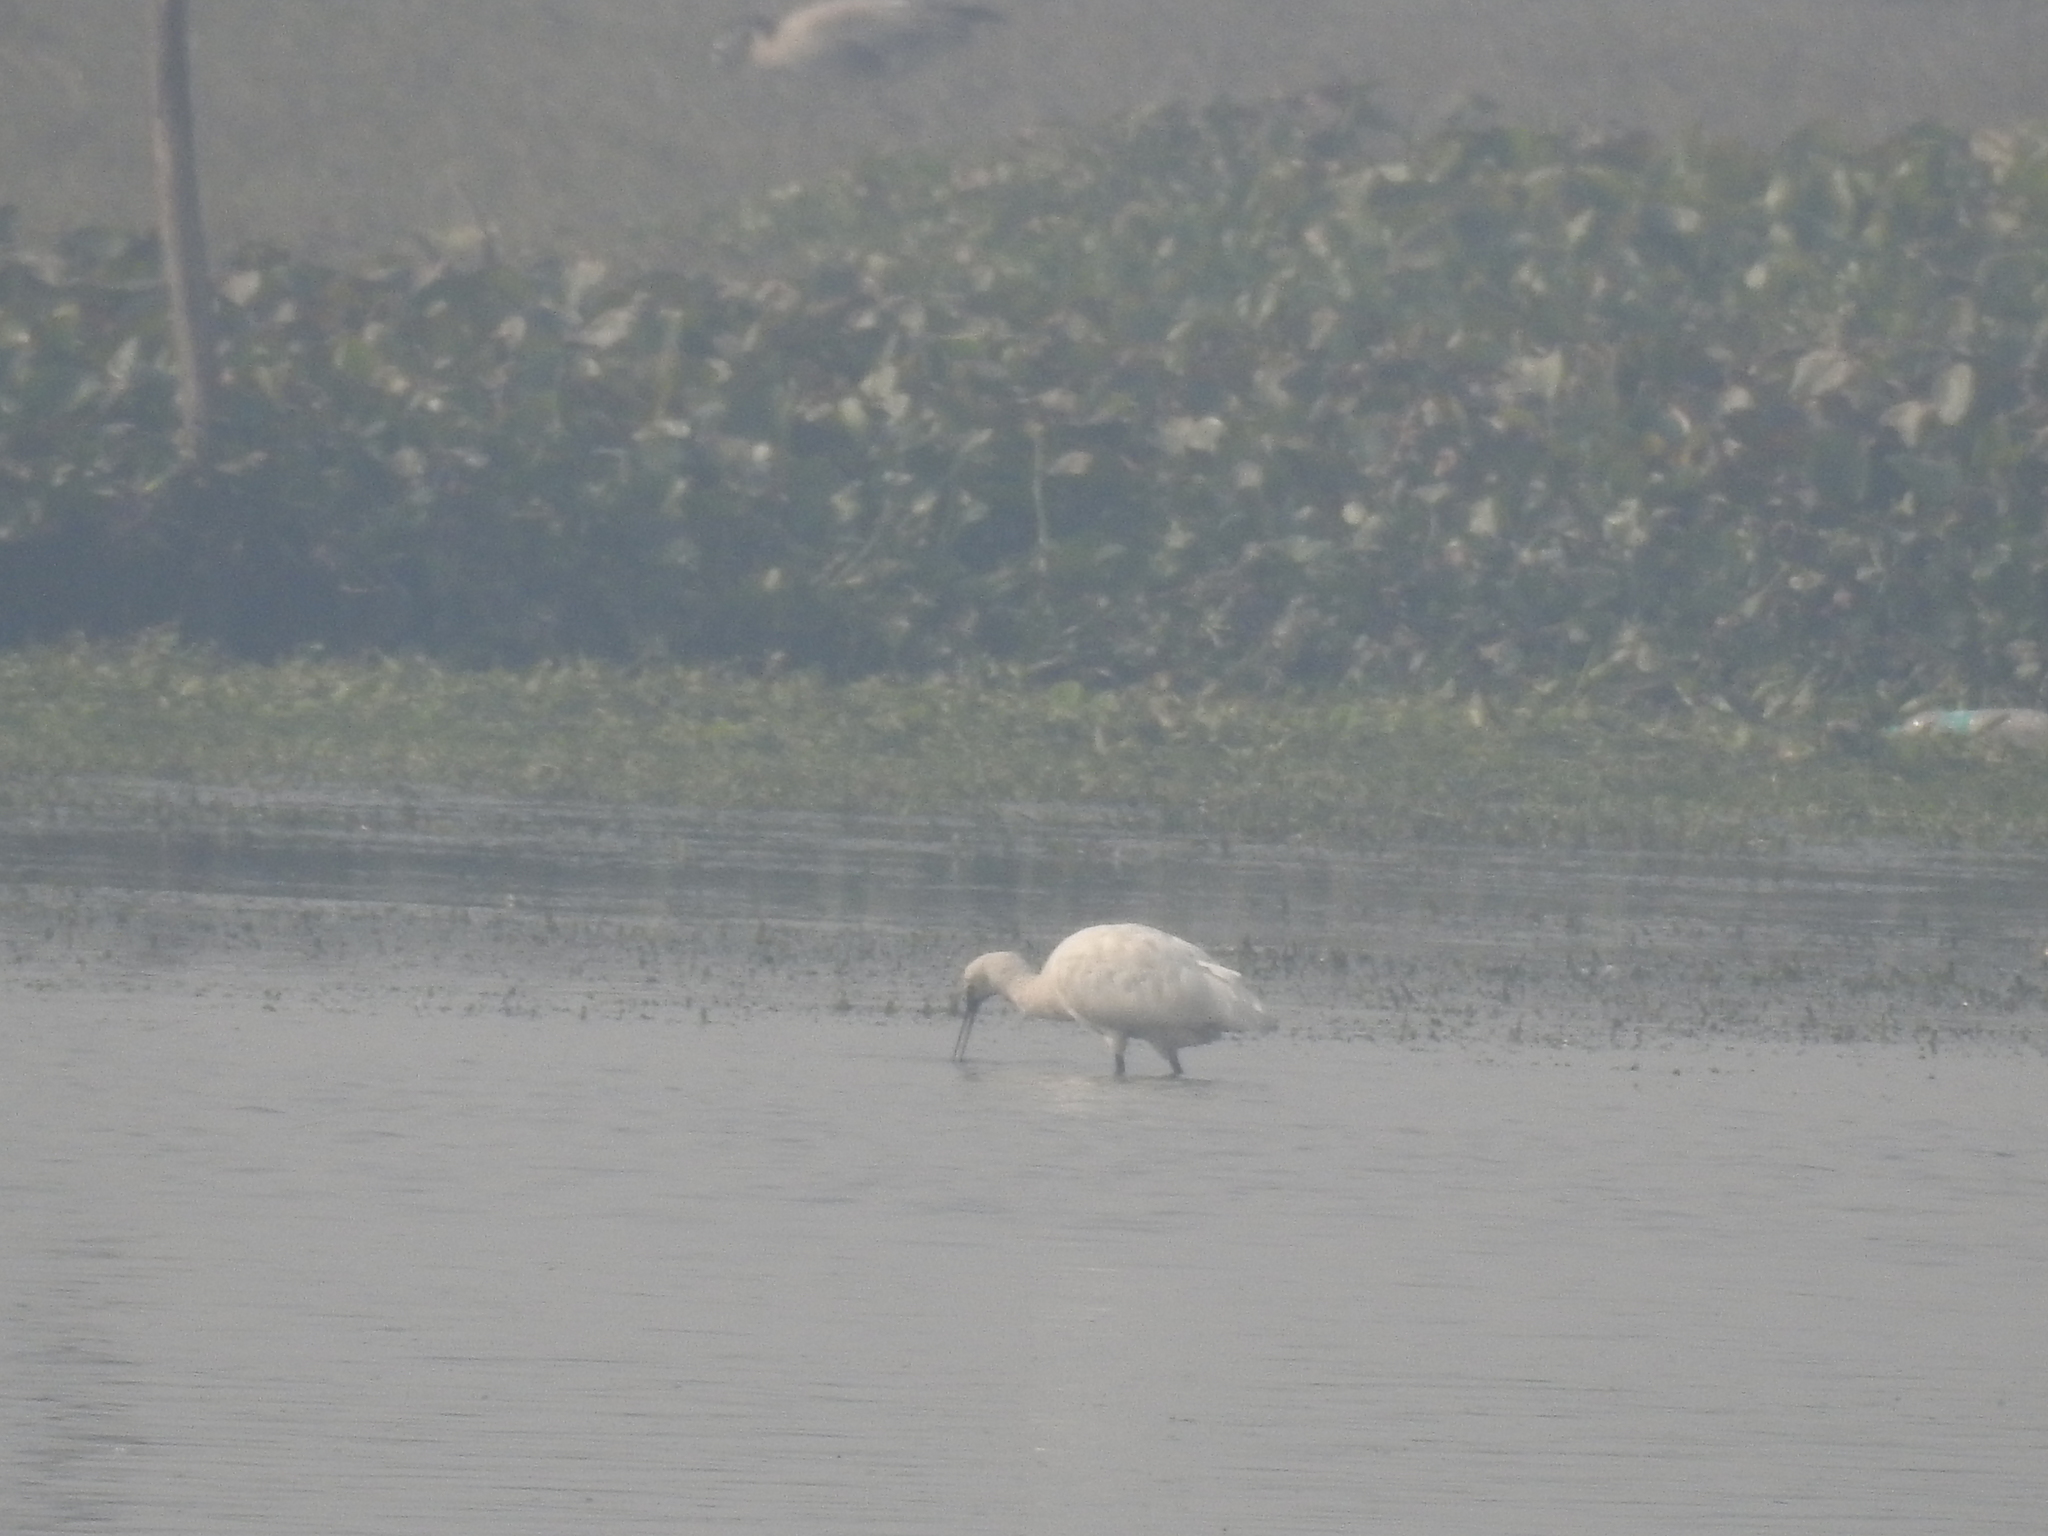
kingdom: Animalia
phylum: Chordata
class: Aves
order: Pelecaniformes
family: Threskiornithidae
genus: Platalea
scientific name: Platalea leucorodia
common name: Eurasian spoonbill
